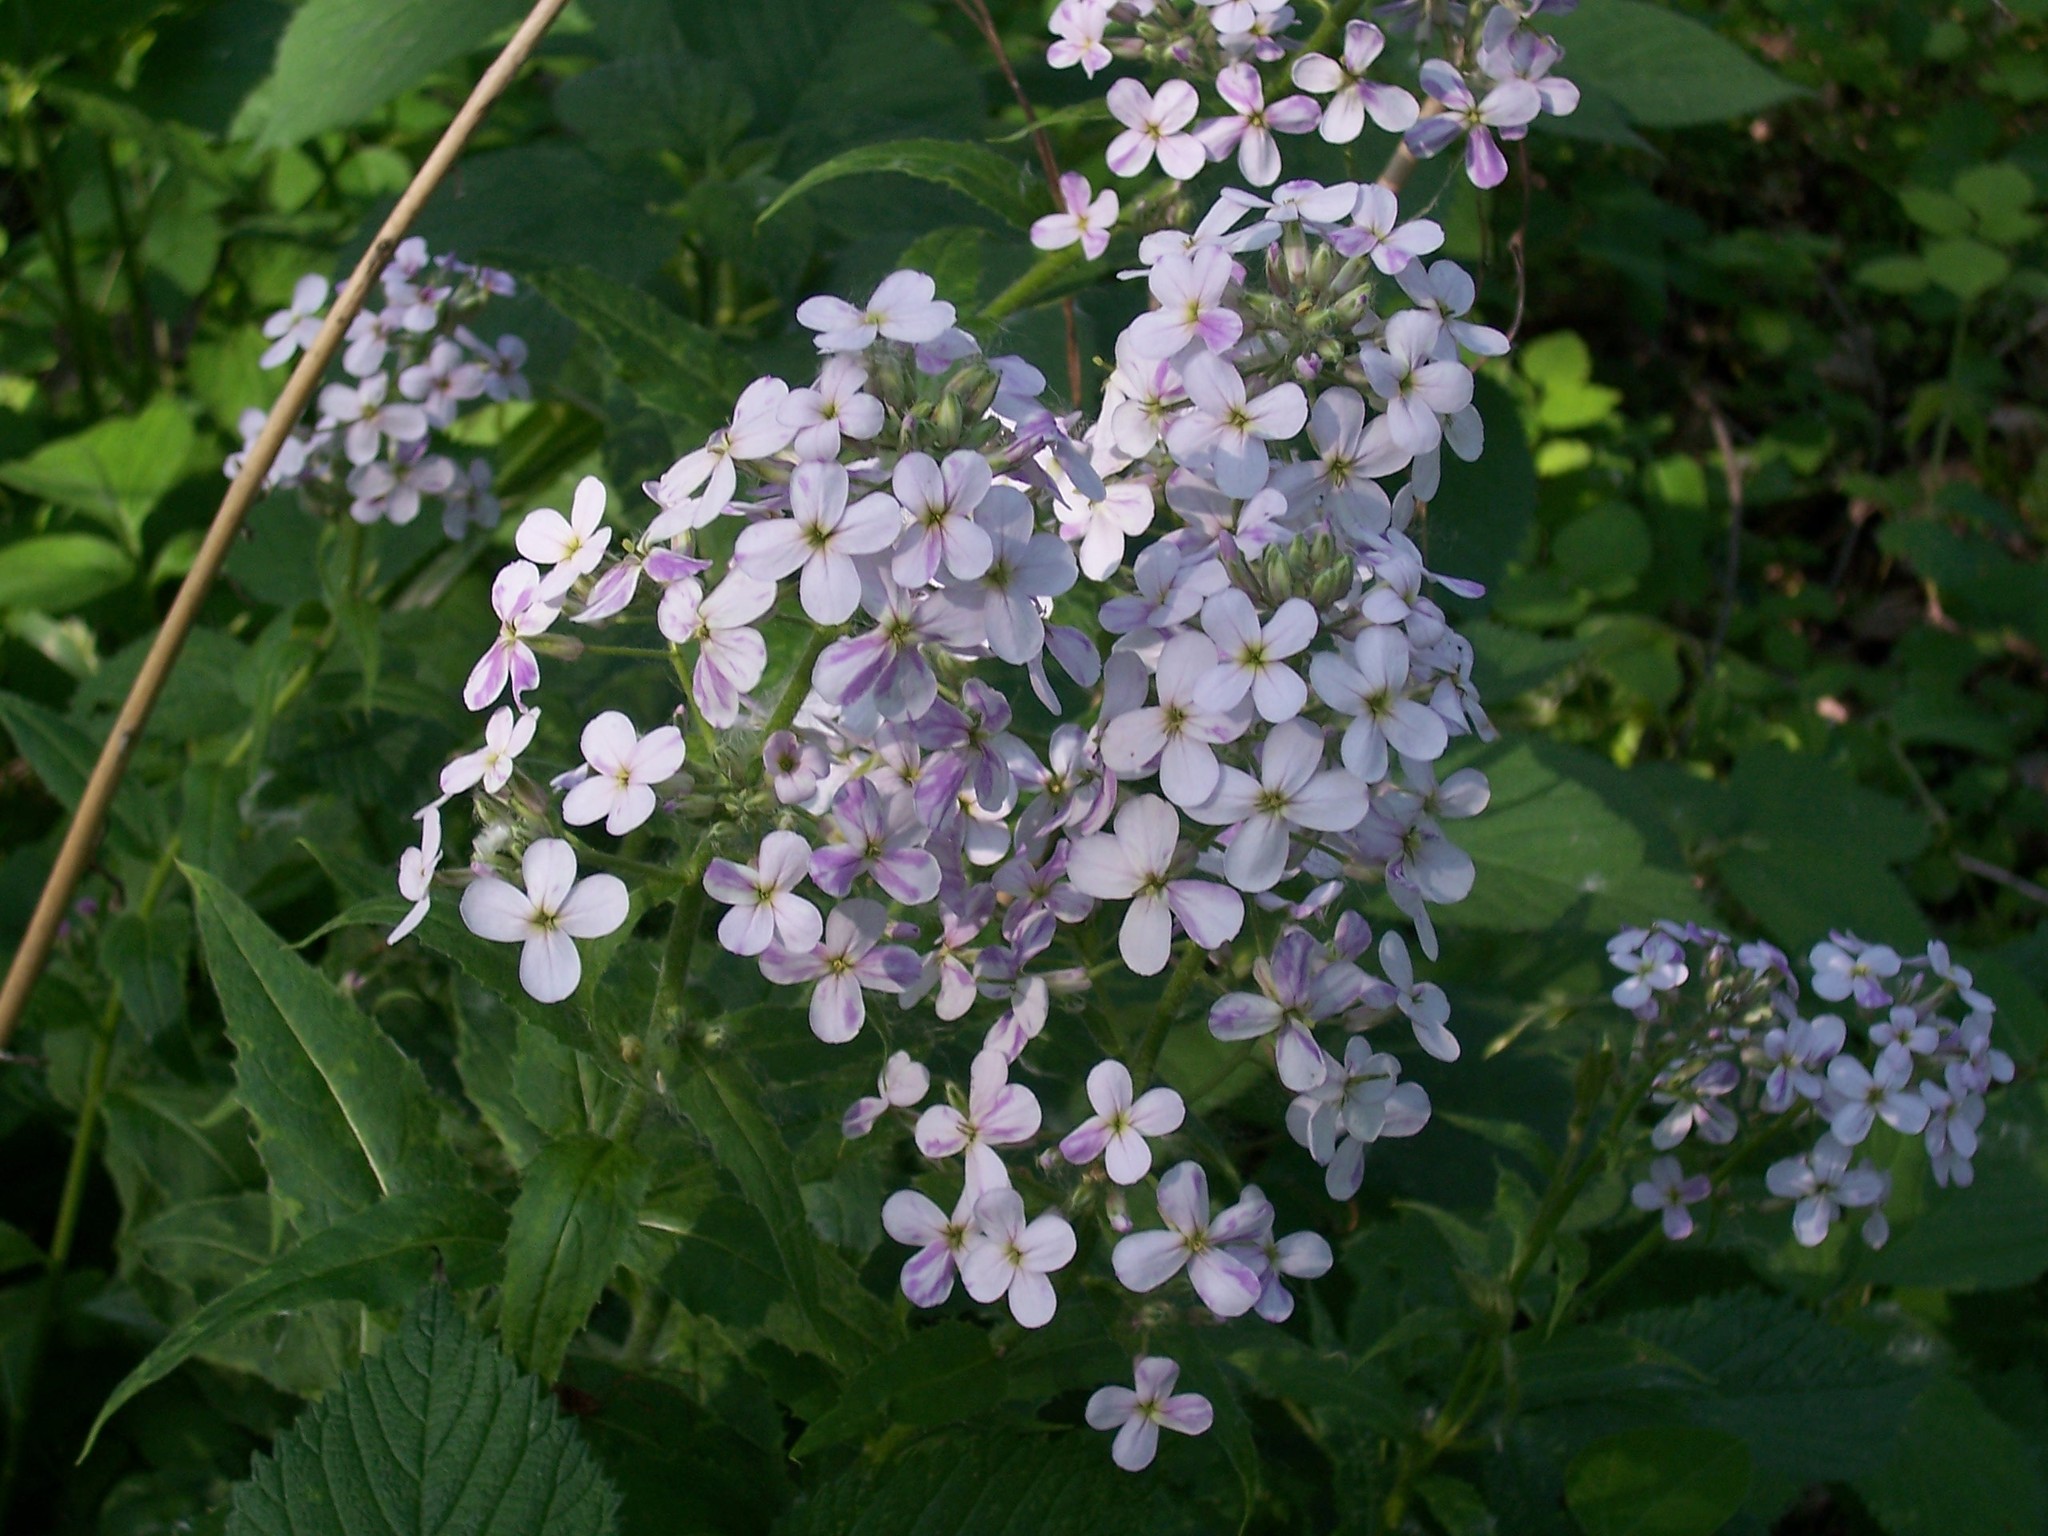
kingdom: Plantae
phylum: Tracheophyta
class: Magnoliopsida
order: Brassicales
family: Brassicaceae
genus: Hesperis
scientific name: Hesperis matronalis
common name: Dame's-violet
